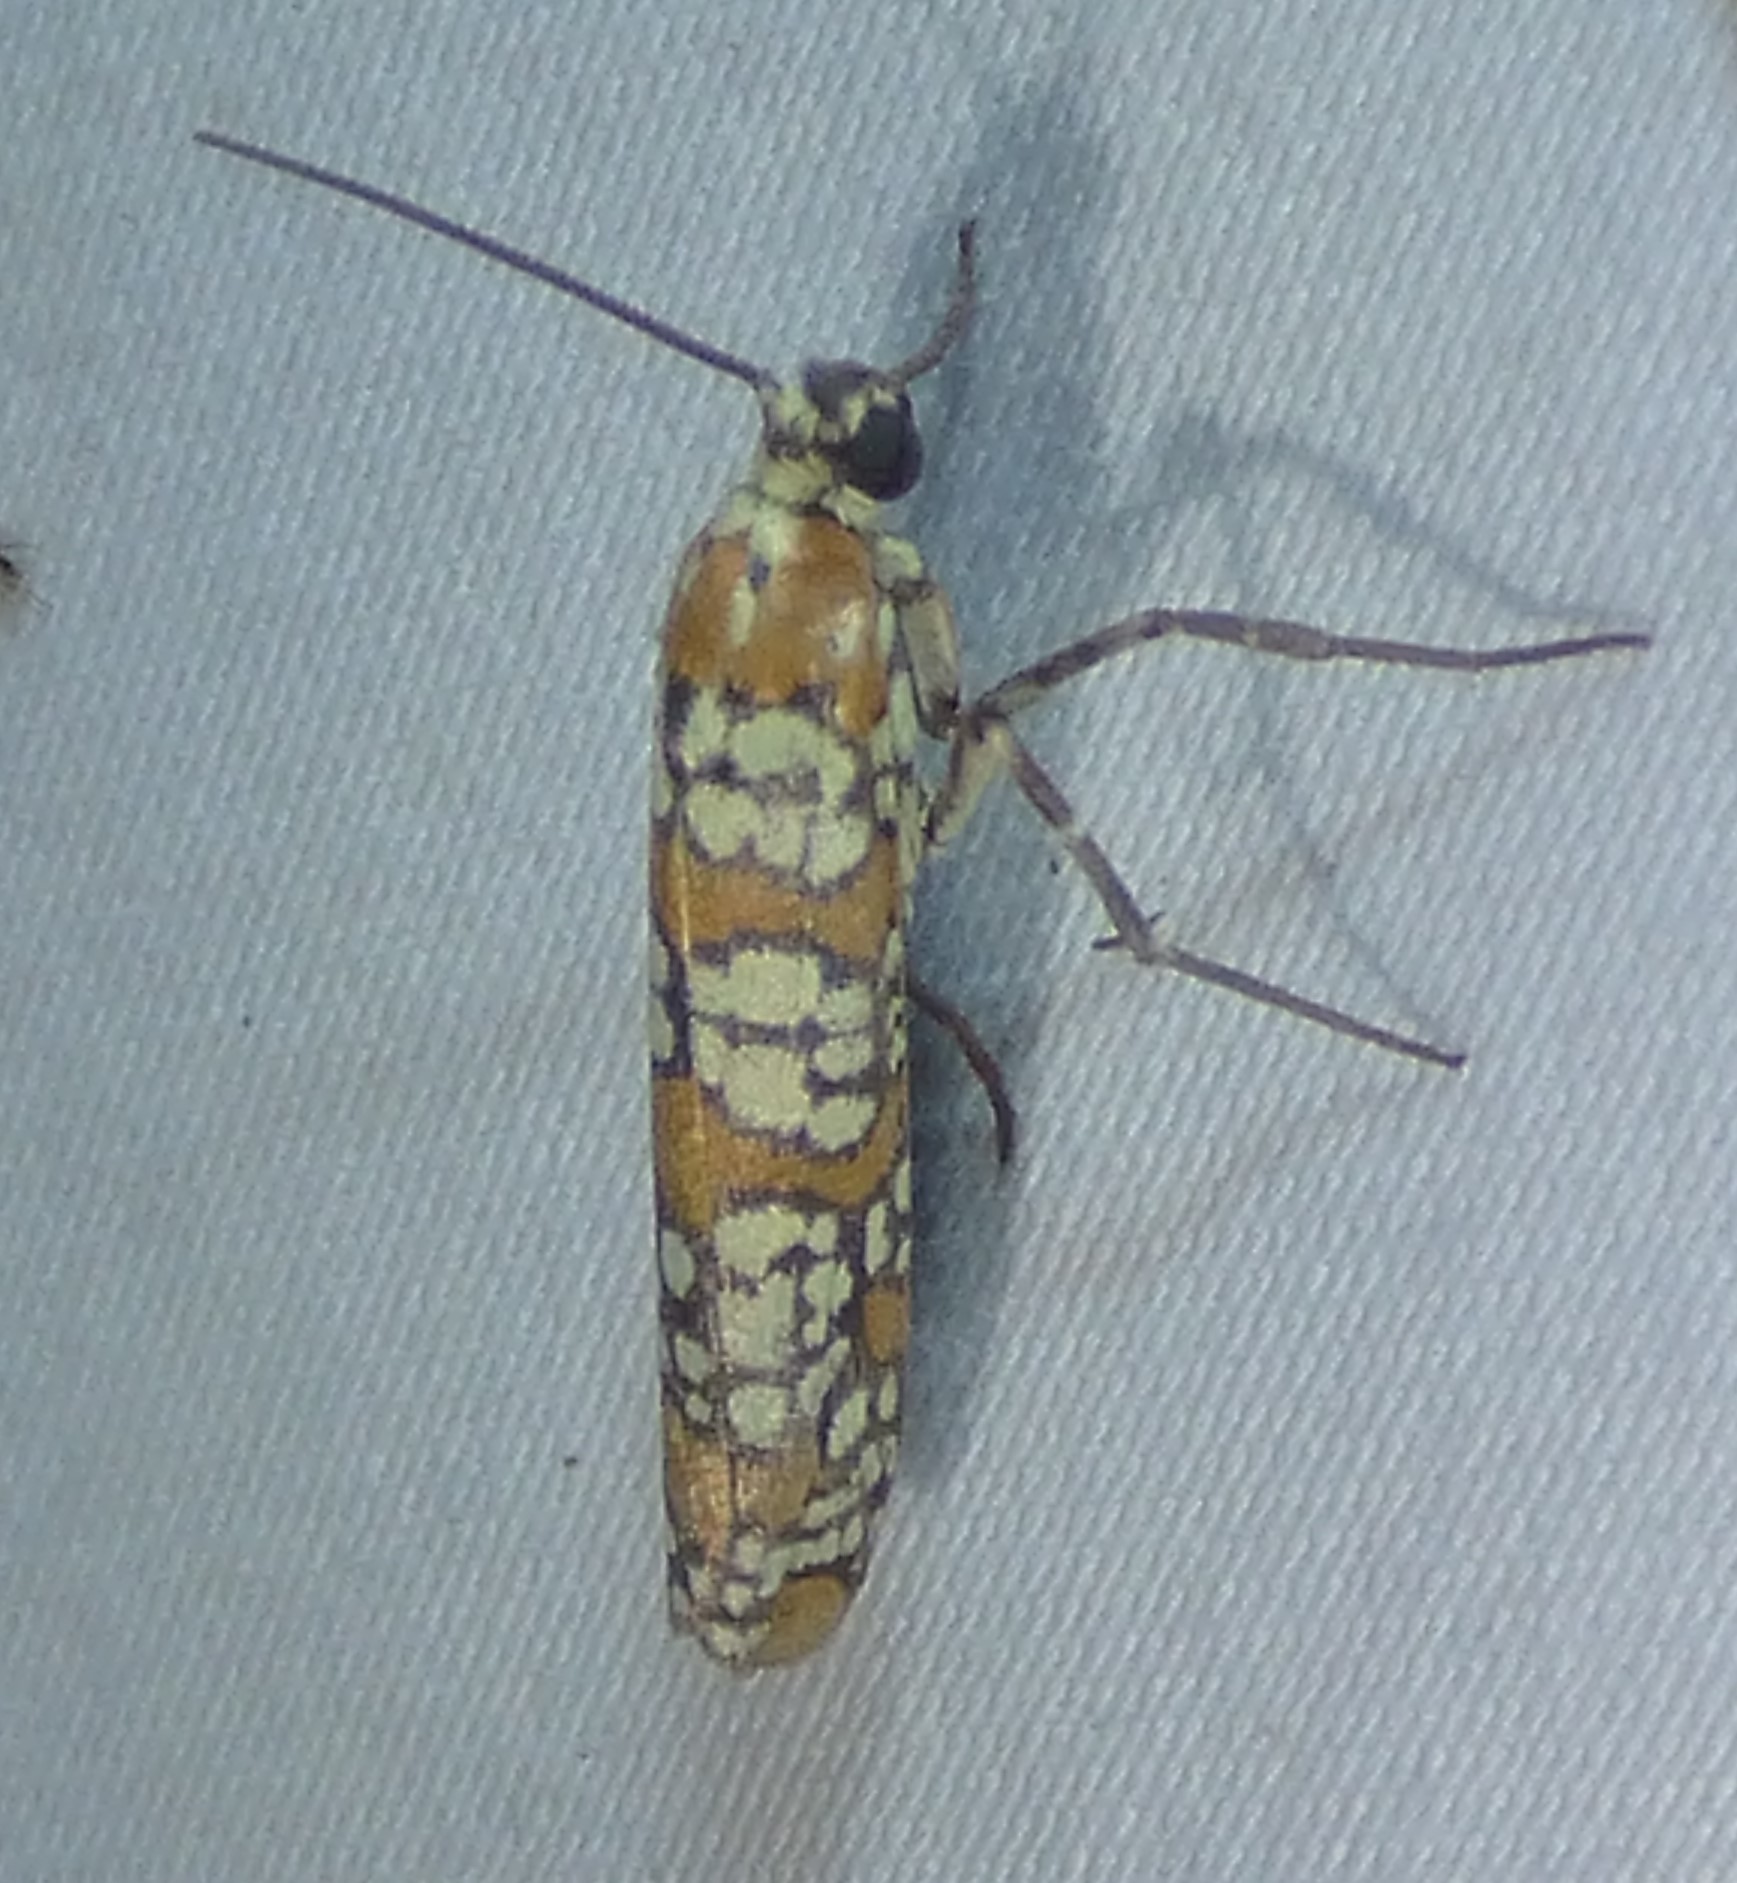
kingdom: Animalia
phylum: Arthropoda
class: Insecta
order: Lepidoptera
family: Attevidae
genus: Atteva
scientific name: Atteva punctella
